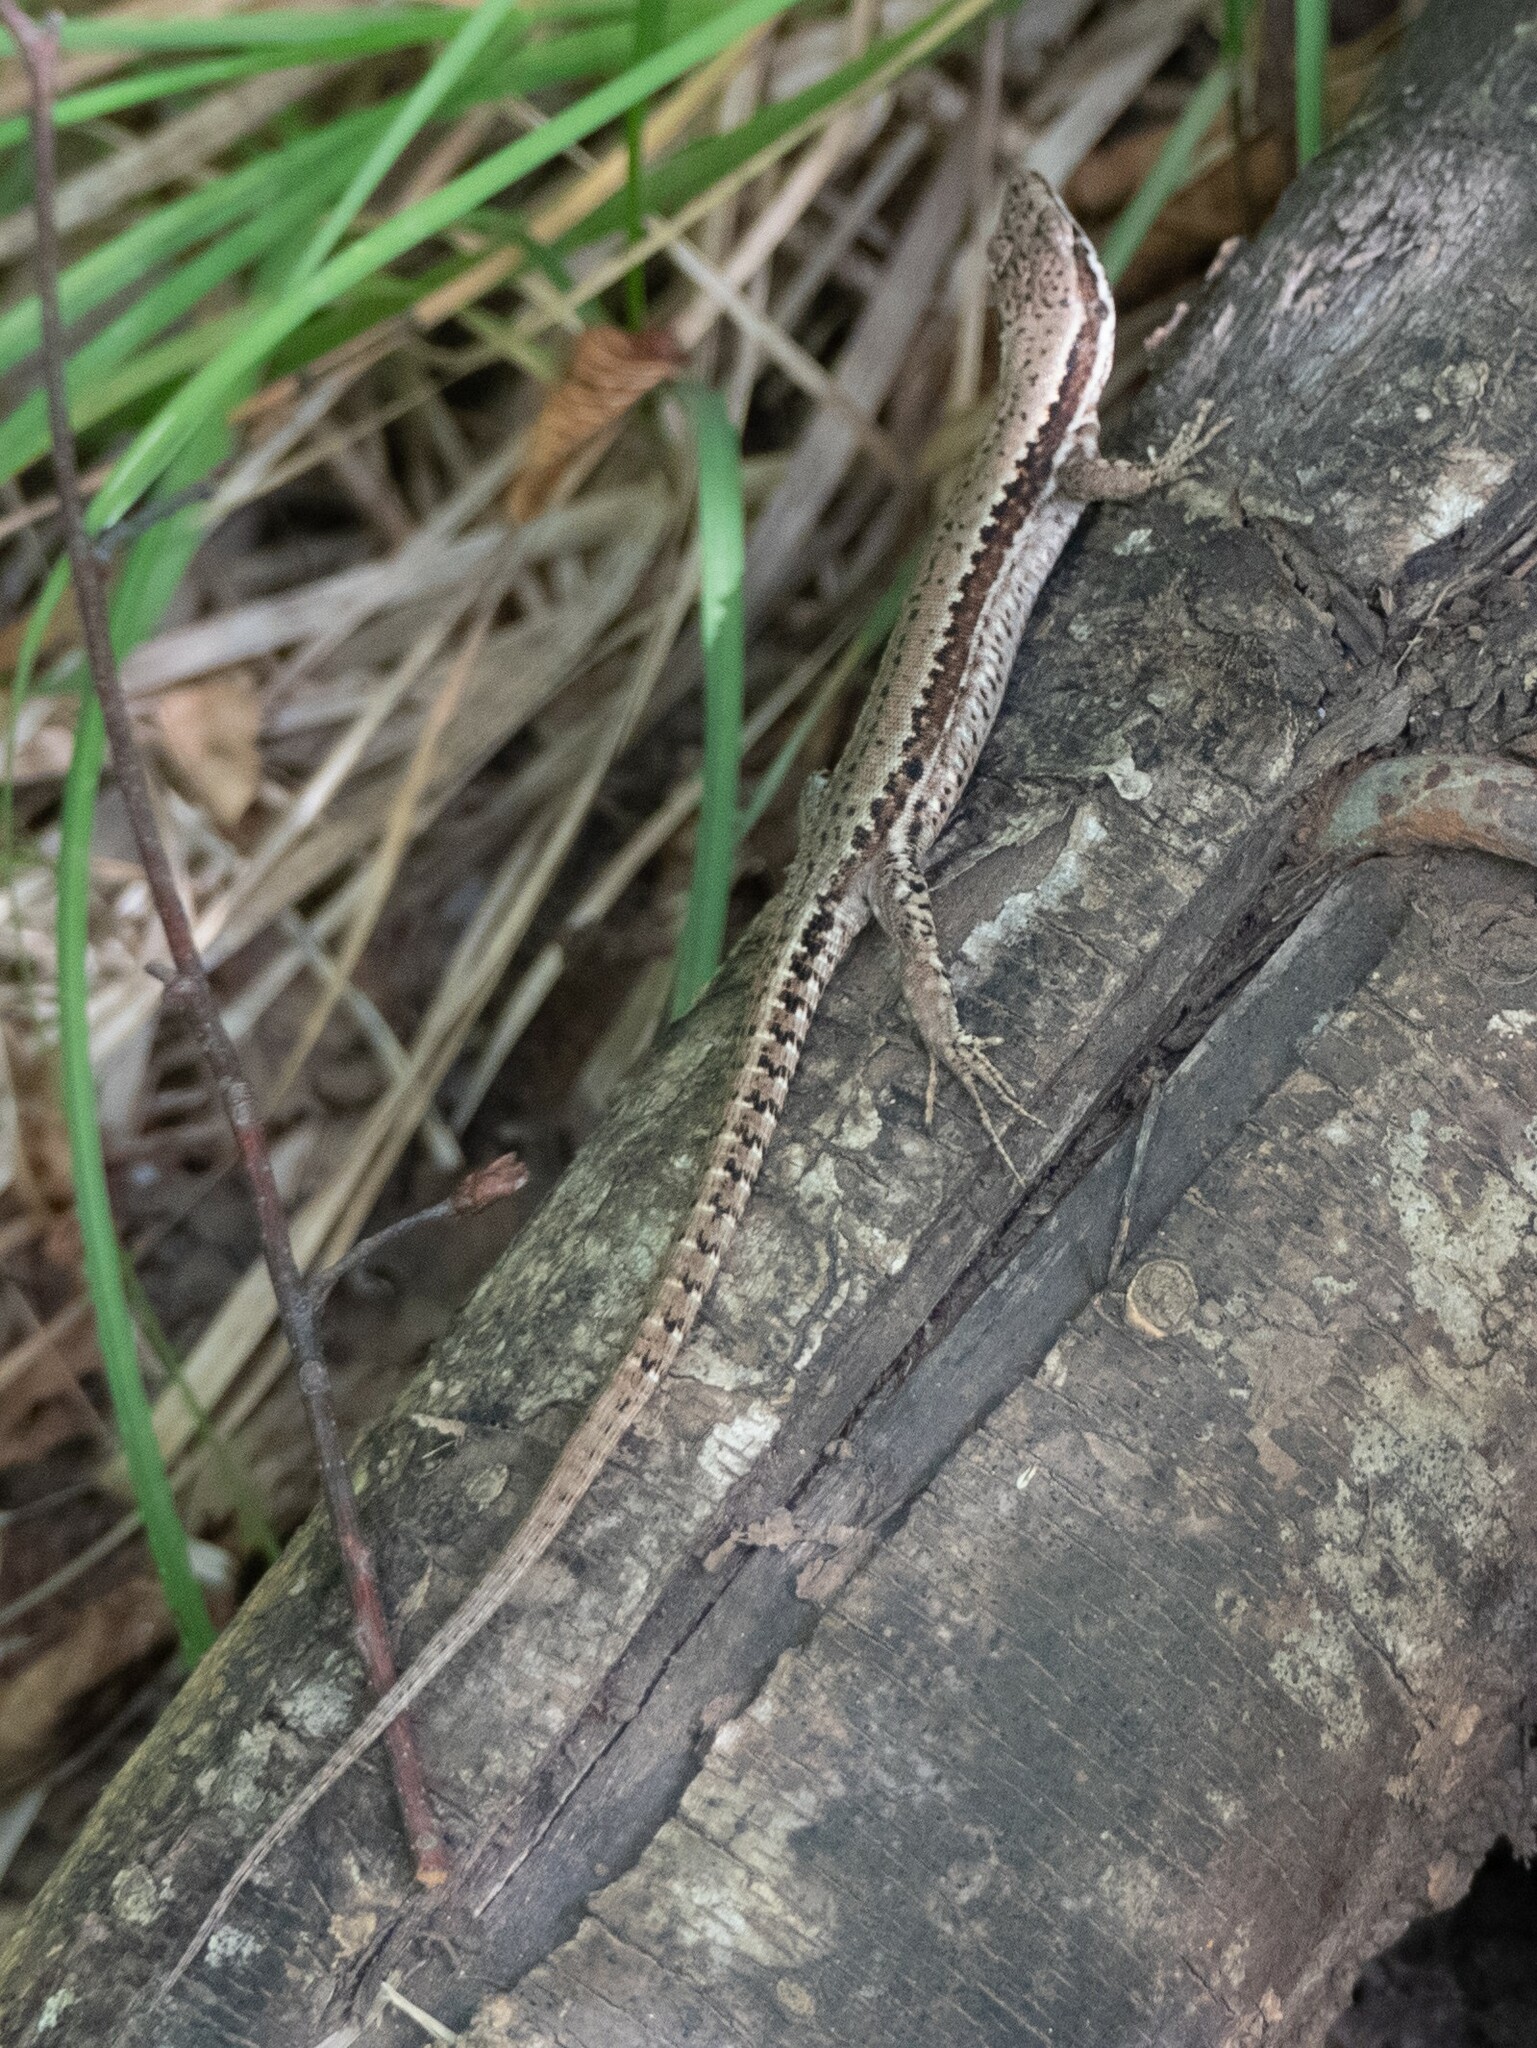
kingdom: Animalia
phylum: Chordata
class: Squamata
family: Lacertidae
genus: Podarcis
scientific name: Podarcis muralis
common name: Common wall lizard
